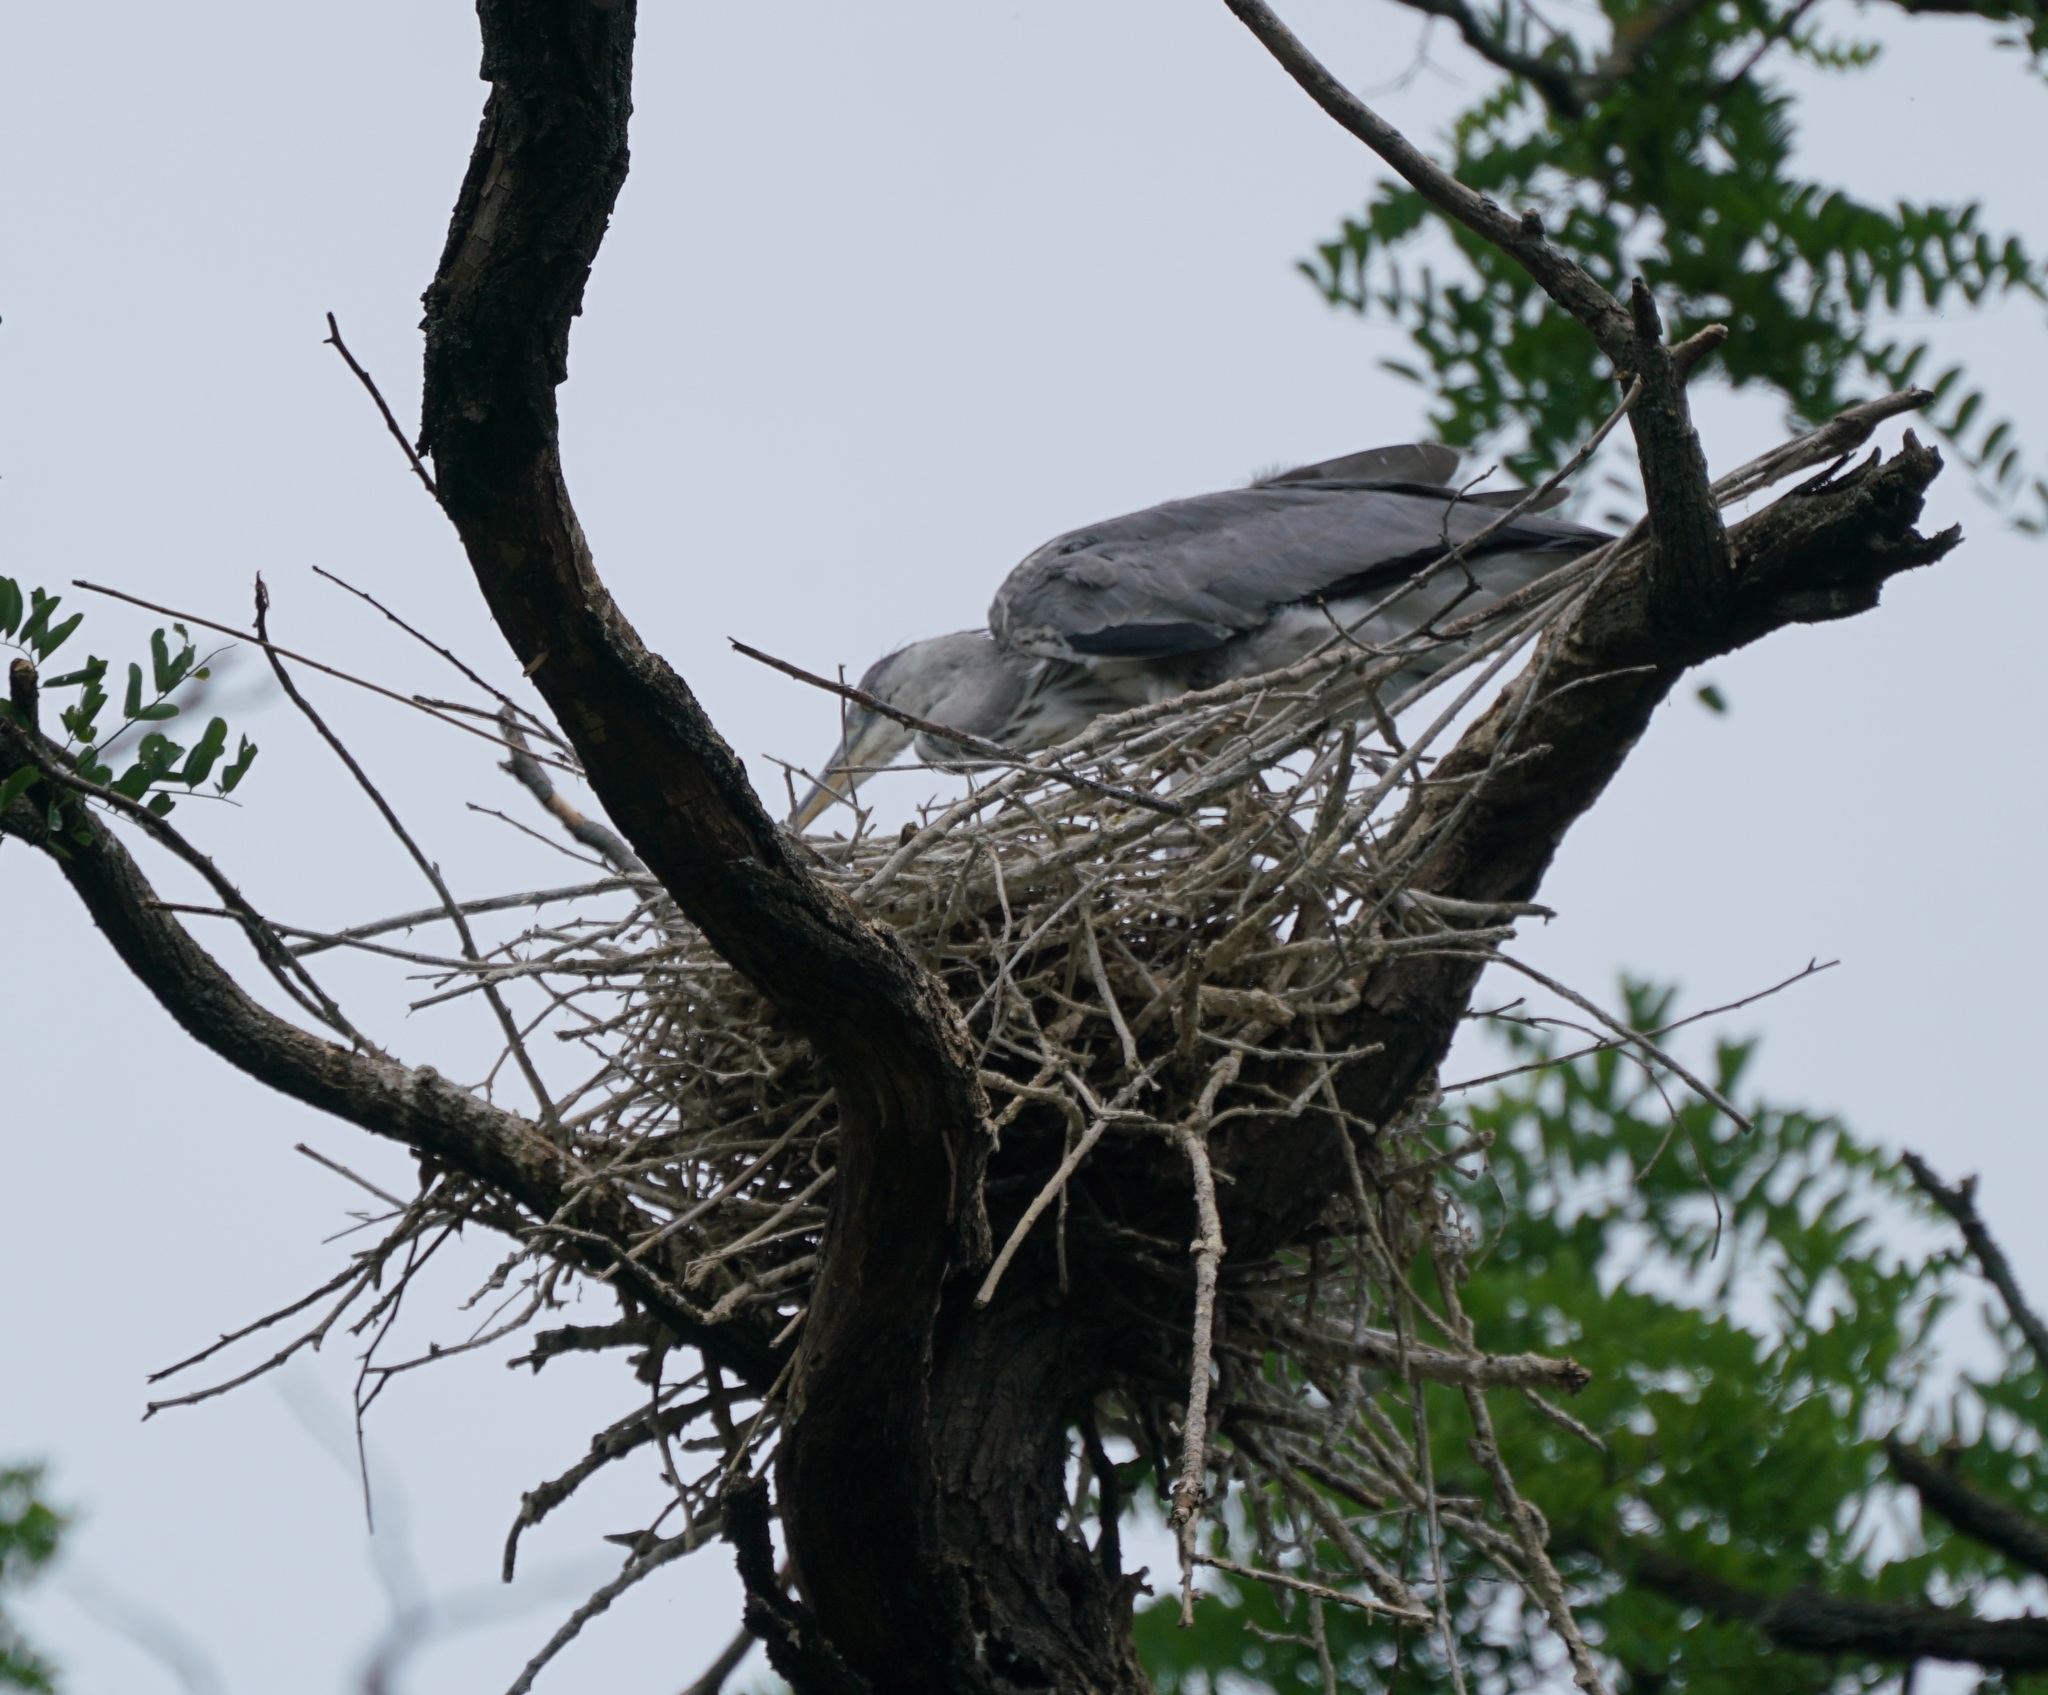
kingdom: Animalia
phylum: Chordata
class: Aves
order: Pelecaniformes
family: Ardeidae
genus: Ardea
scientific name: Ardea cinerea
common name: Grey heron
